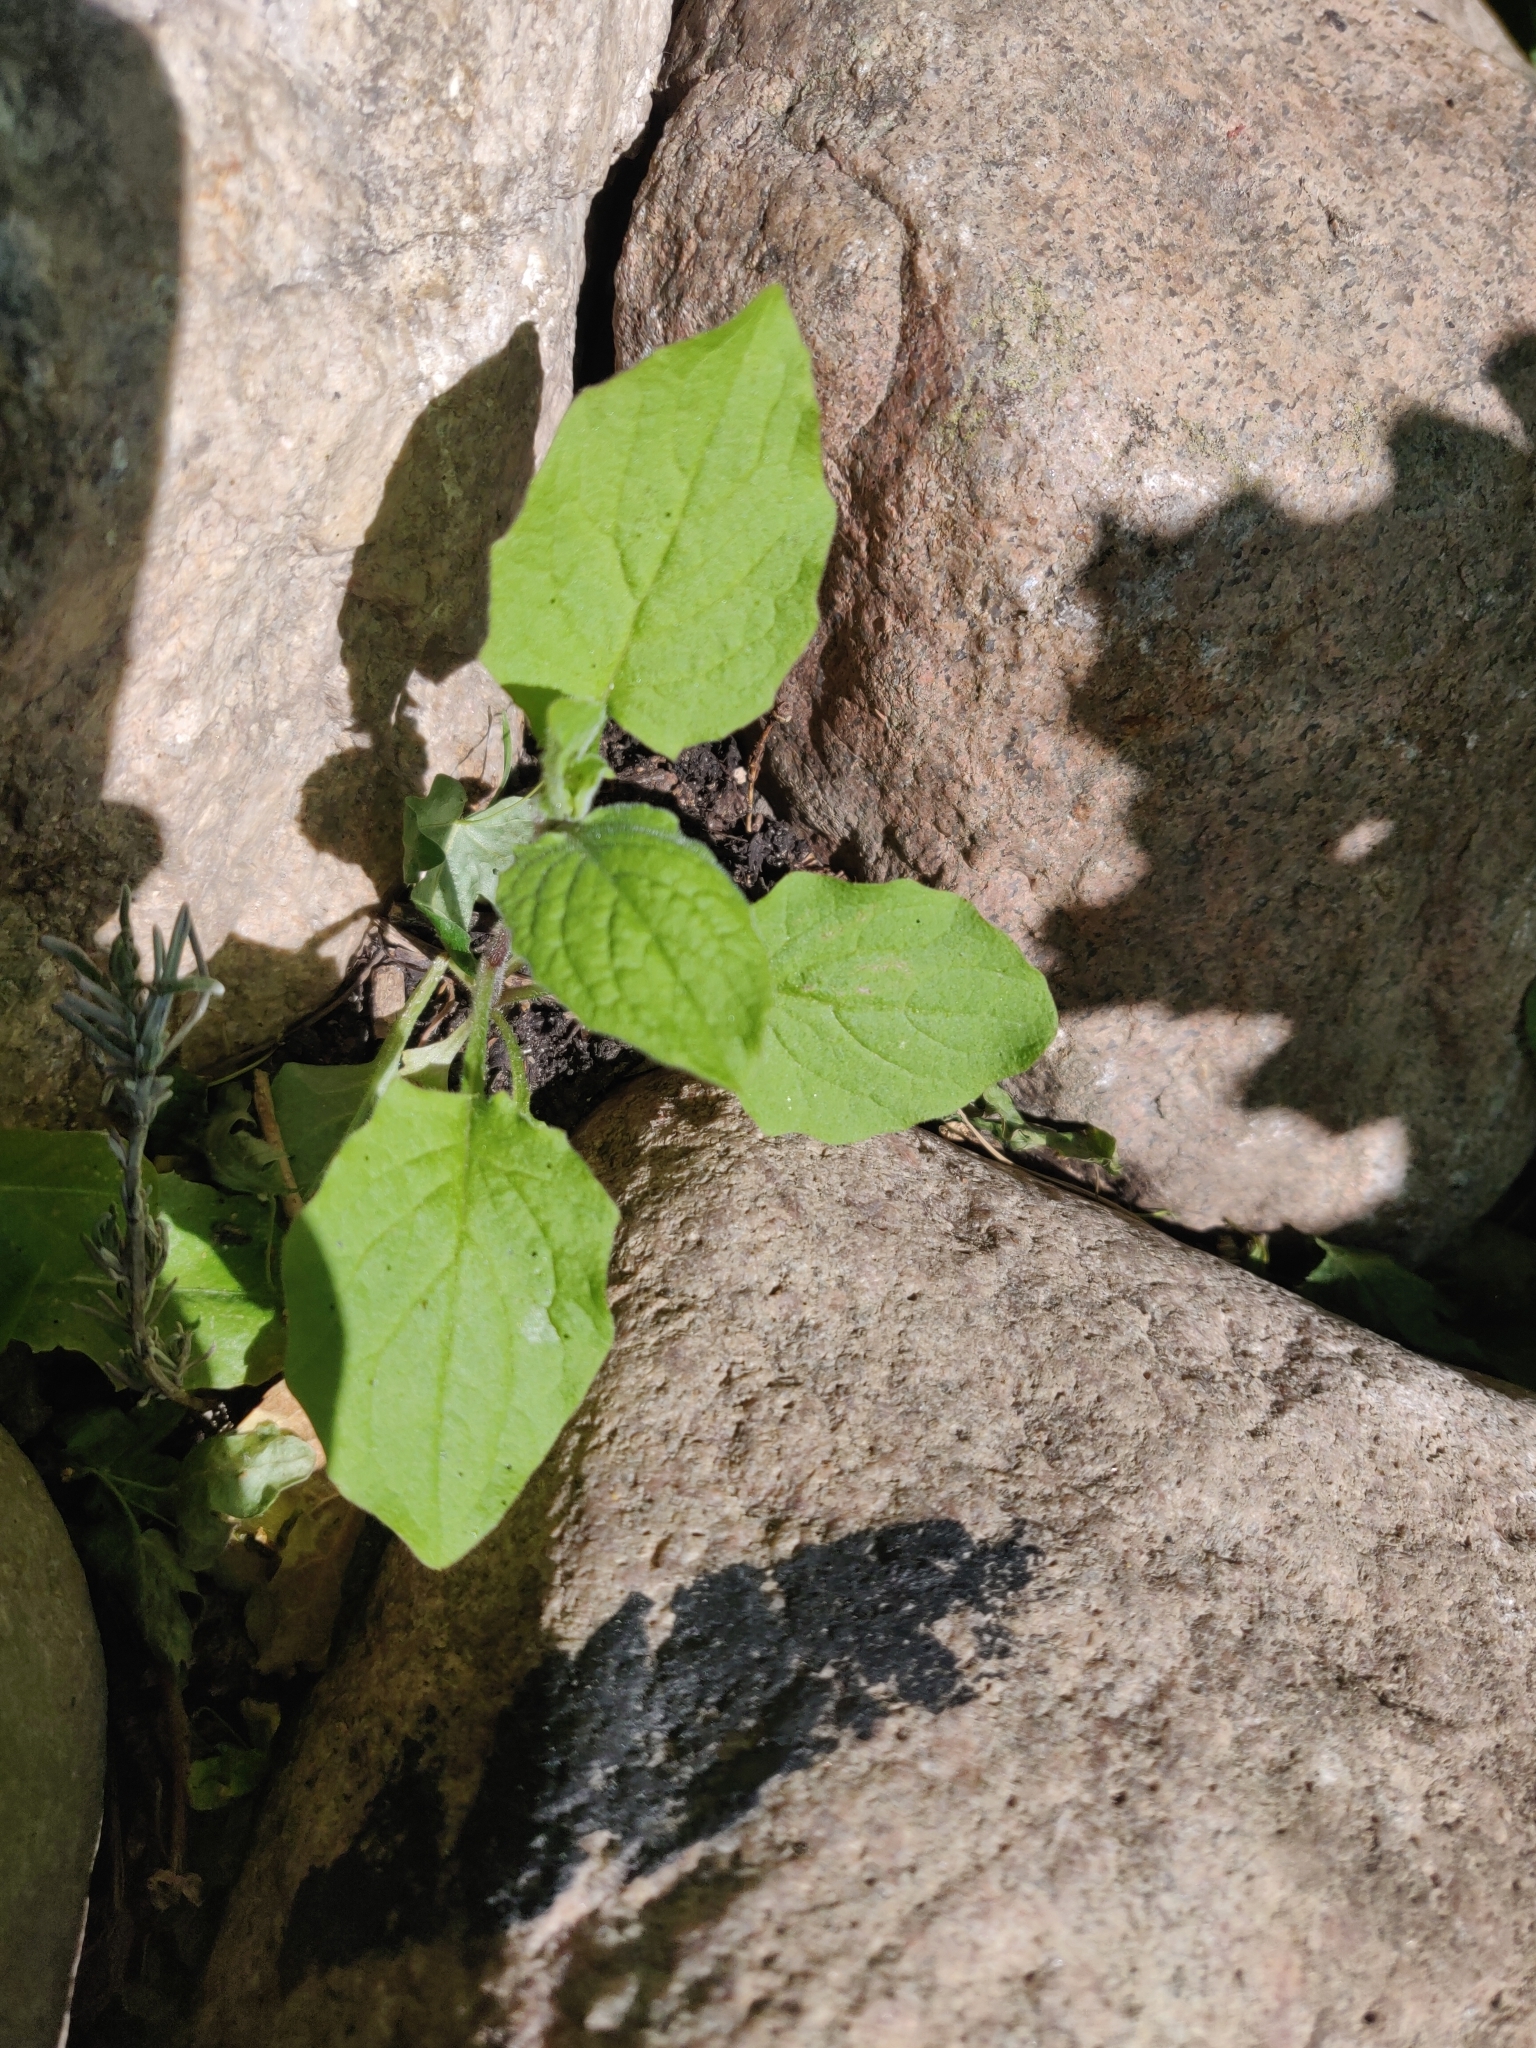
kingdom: Plantae
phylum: Tracheophyta
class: Magnoliopsida
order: Asterales
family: Asteraceae
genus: Lapsana
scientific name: Lapsana communis
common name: Nipplewort
